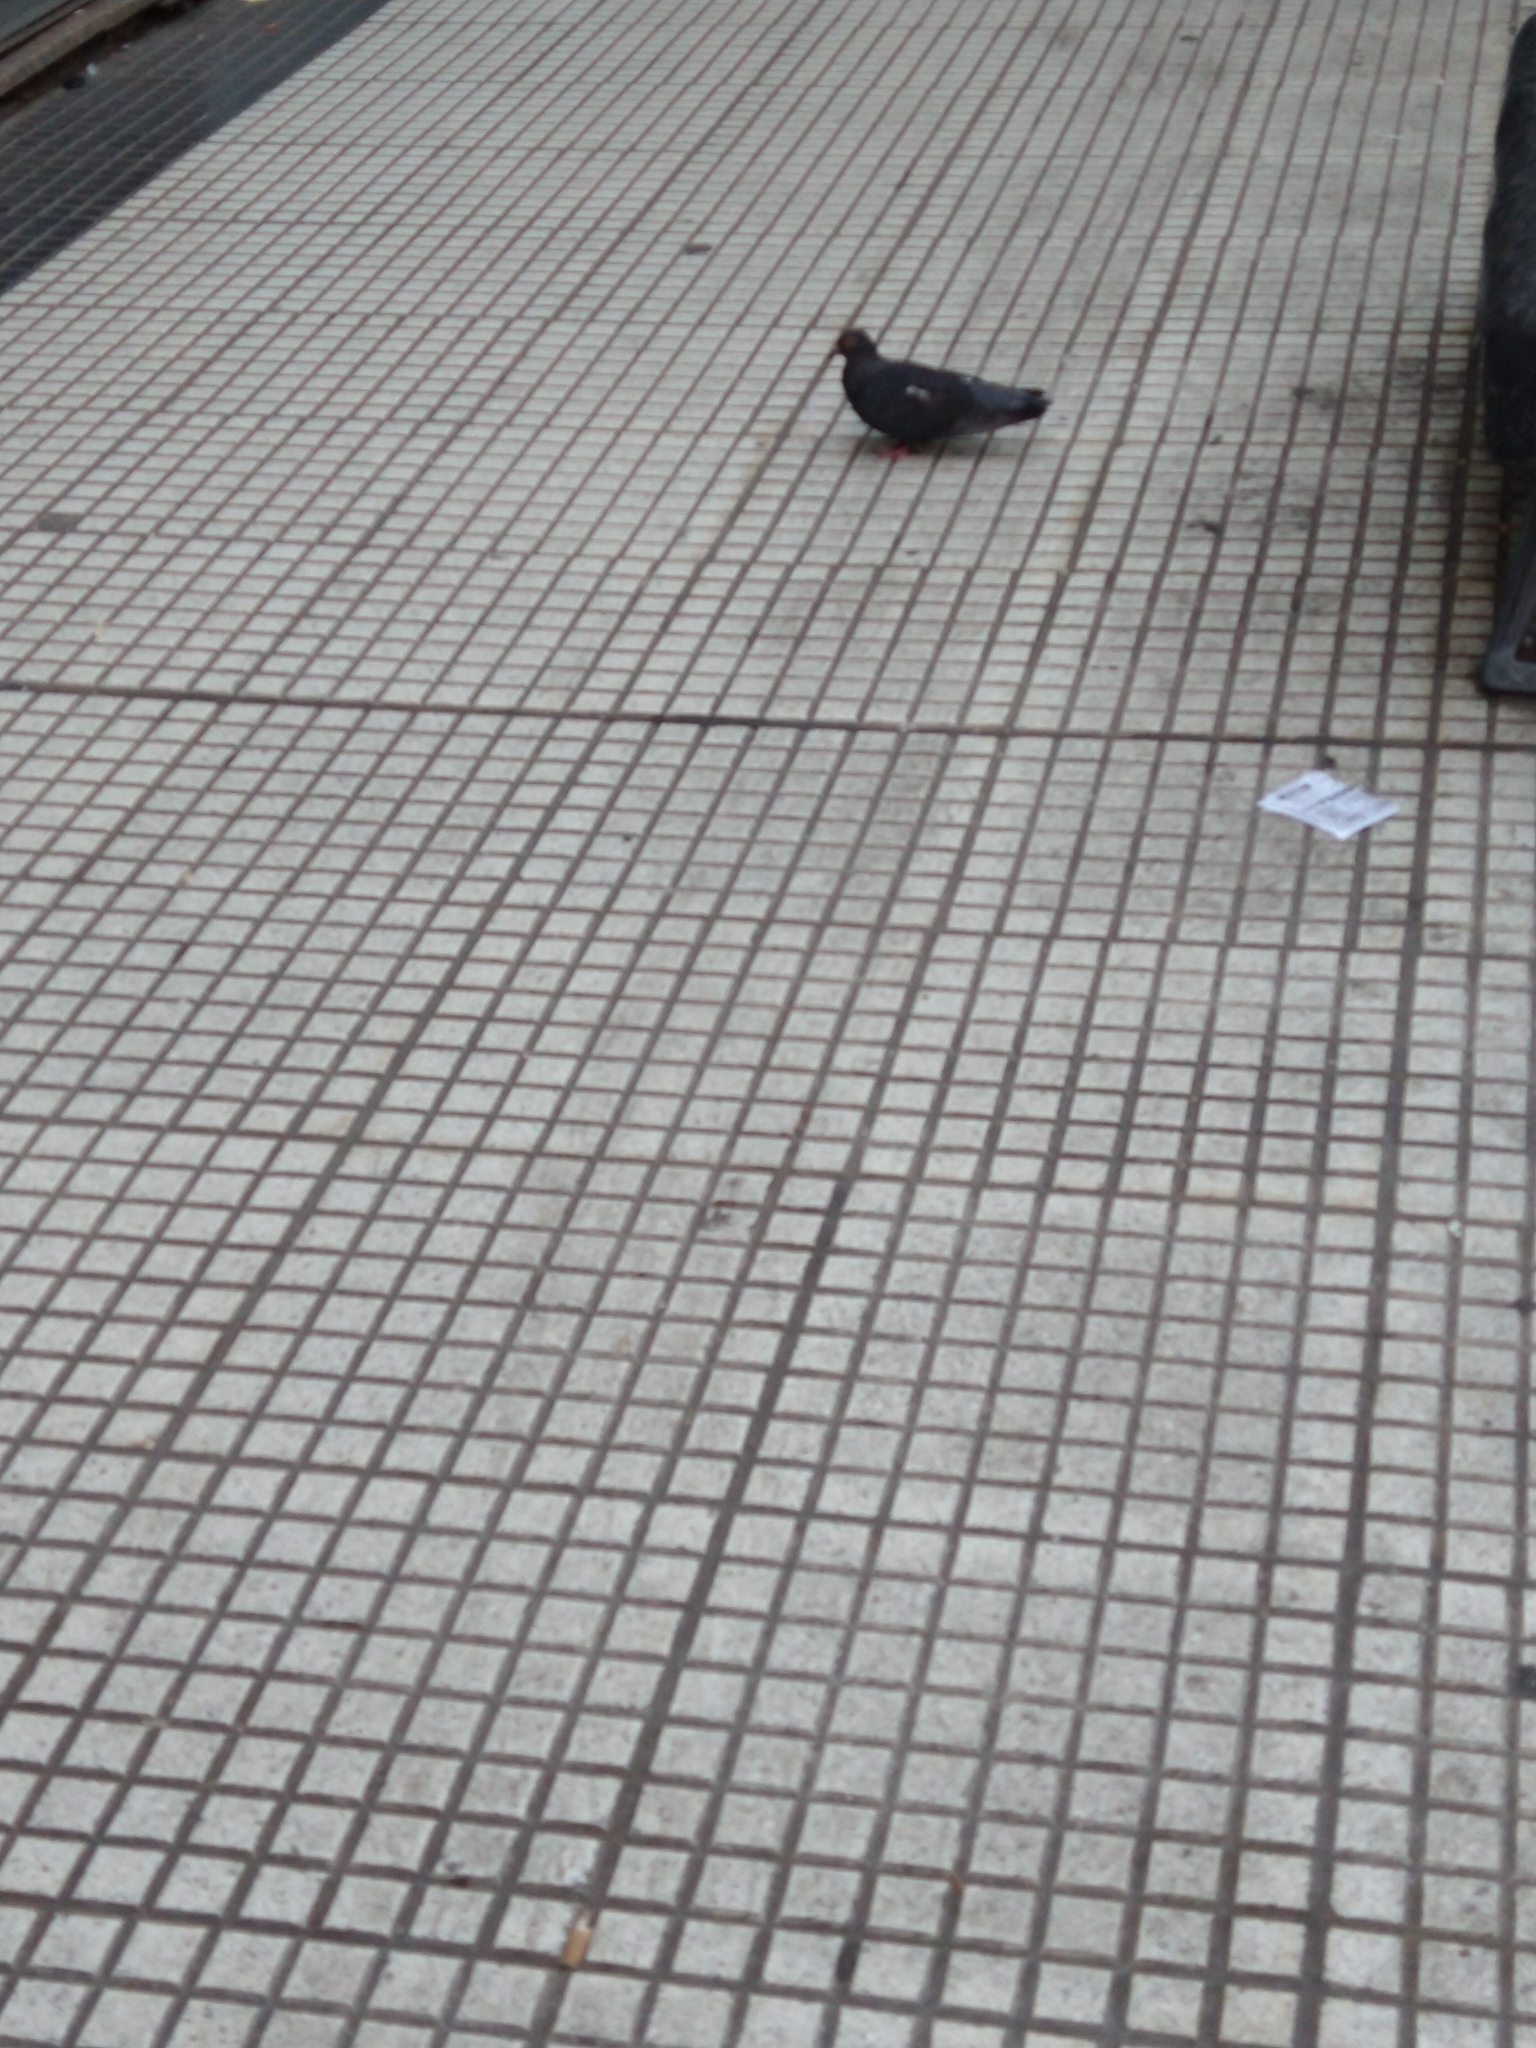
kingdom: Animalia
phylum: Chordata
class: Aves
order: Columbiformes
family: Columbidae
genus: Columba
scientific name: Columba livia
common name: Rock pigeon
